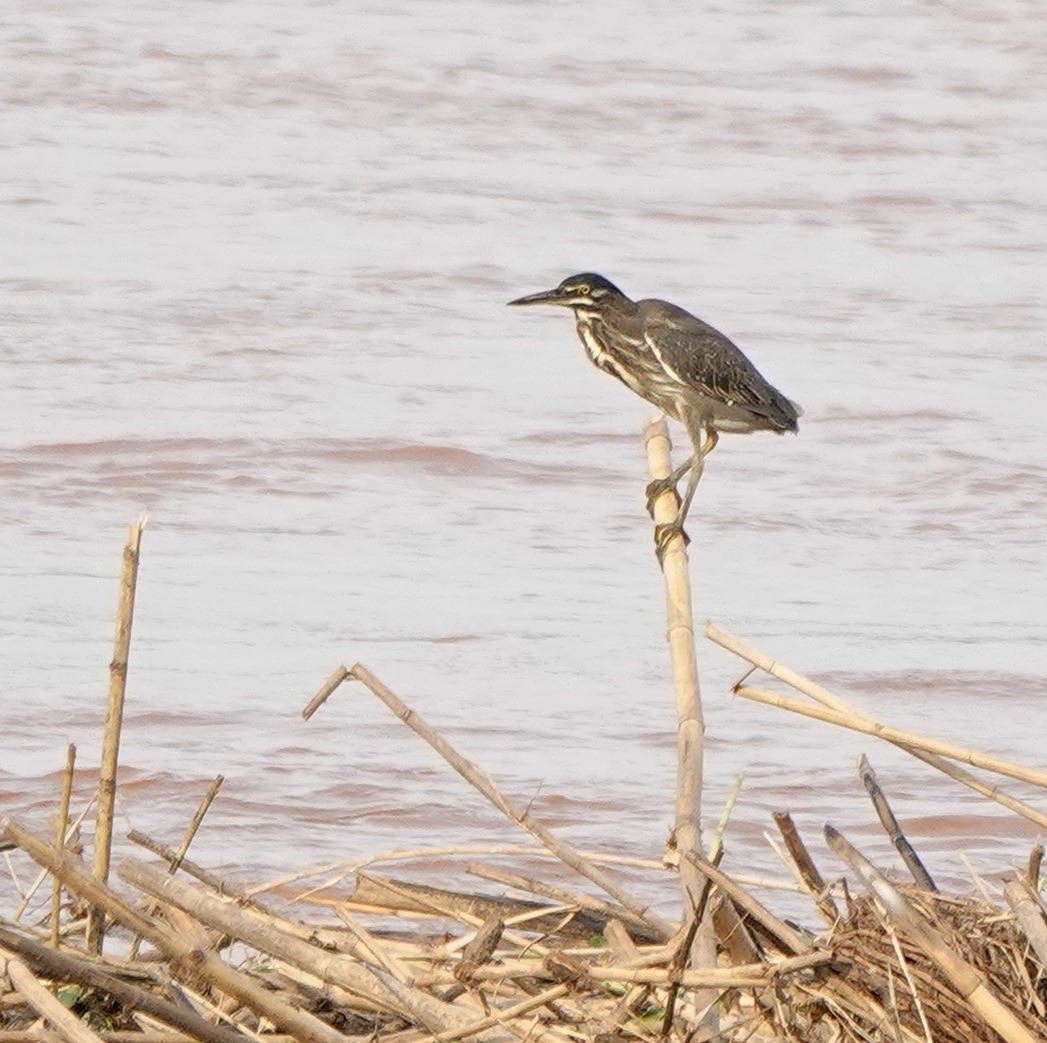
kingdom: Animalia
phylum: Chordata
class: Aves
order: Pelecaniformes
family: Ardeidae
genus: Butorides
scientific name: Butorides striata
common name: Striated heron
